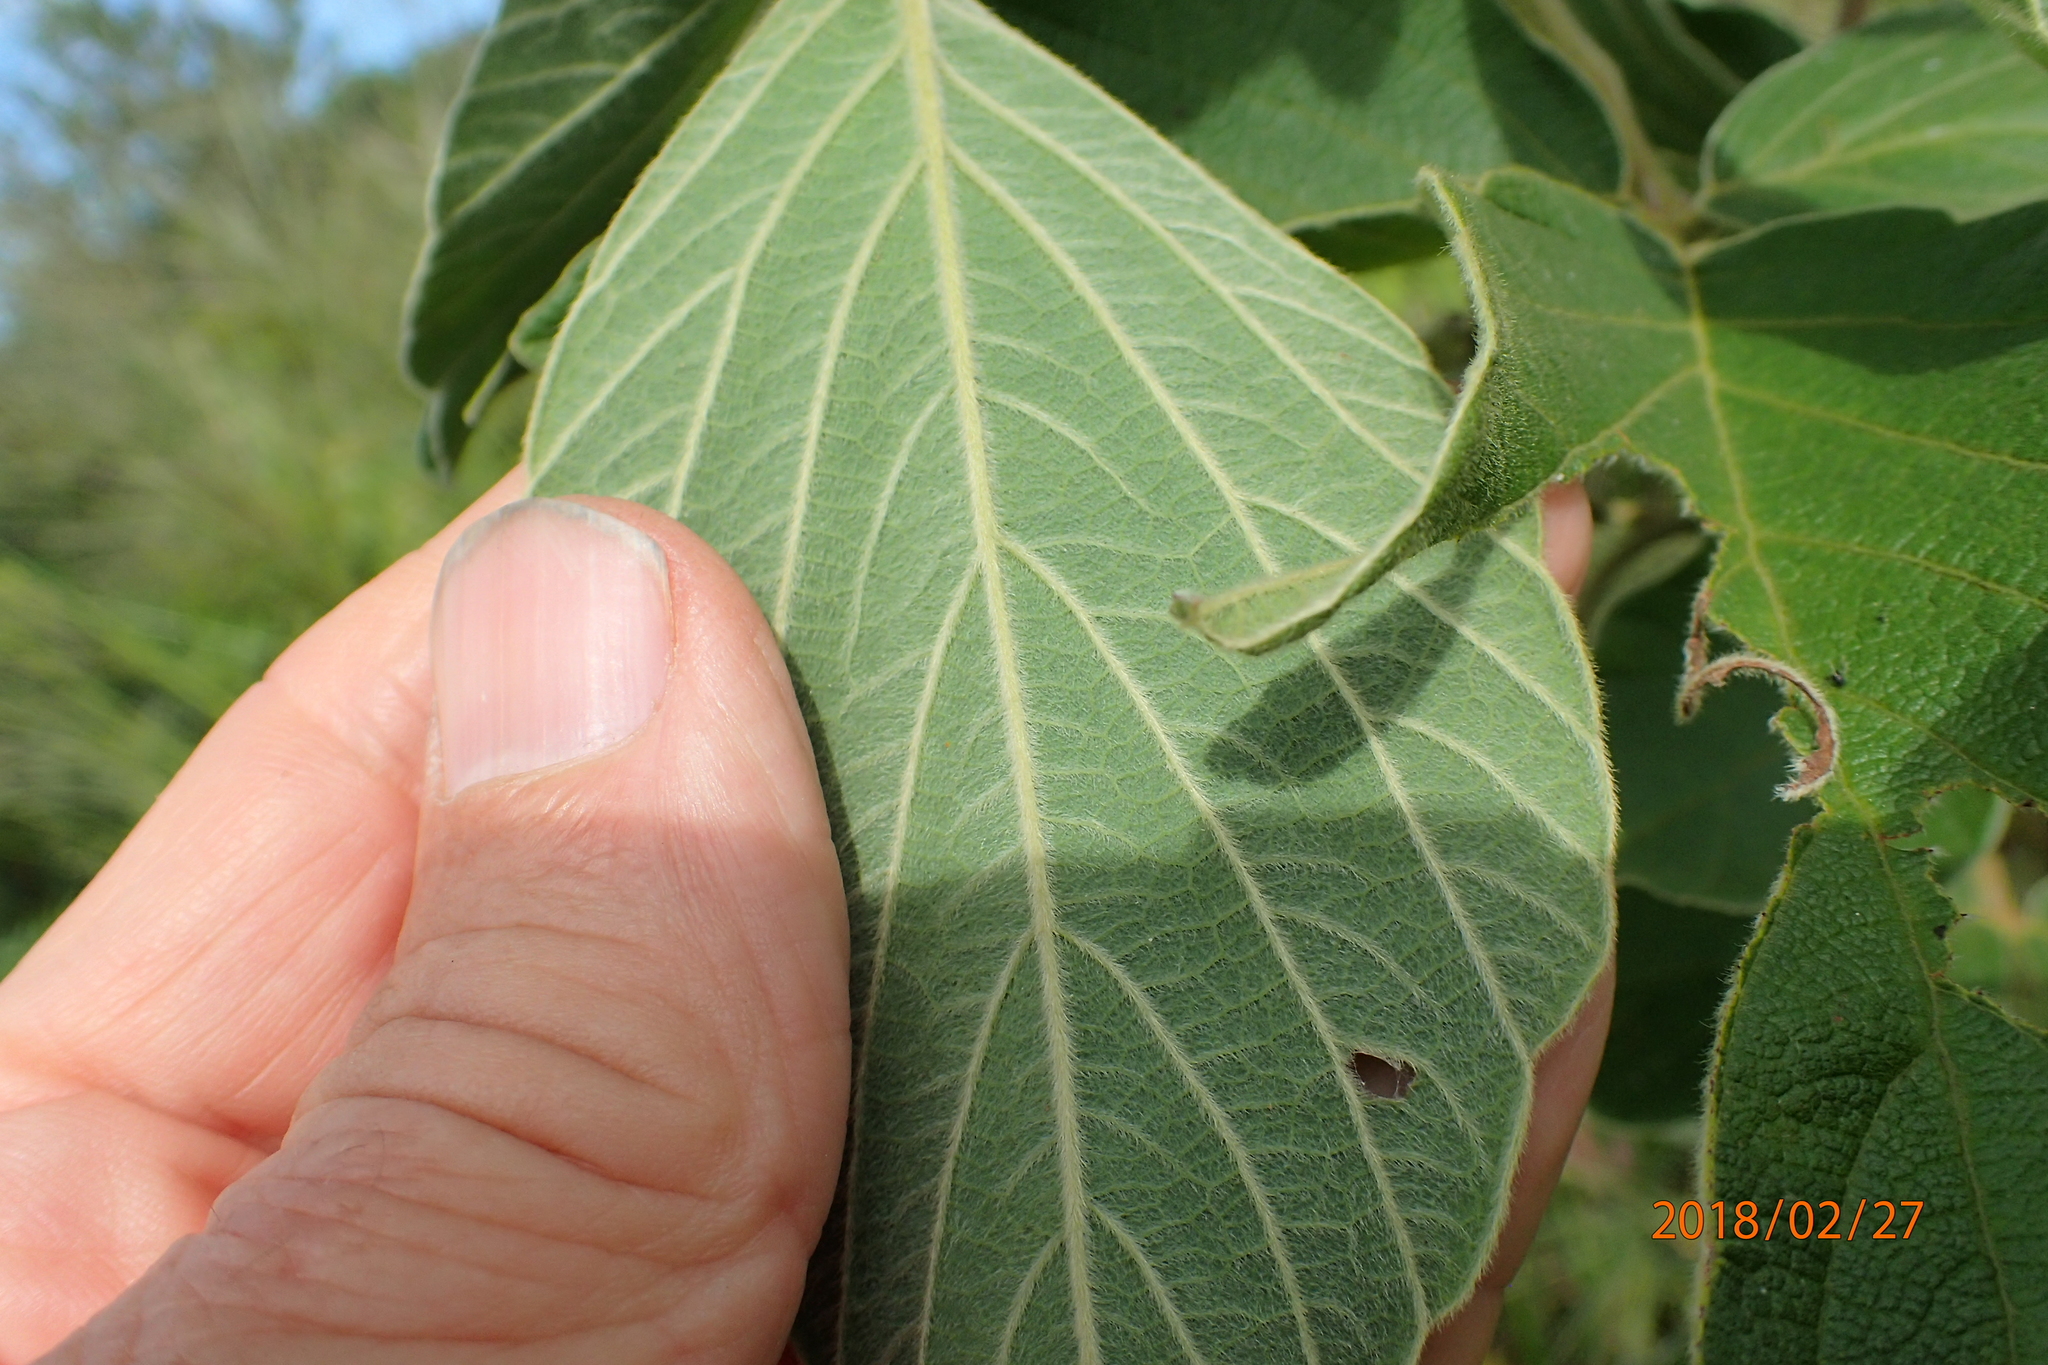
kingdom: Plantae
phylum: Tracheophyta
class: Magnoliopsida
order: Fabales
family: Fabaceae
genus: Pseudarthria
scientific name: Pseudarthria hookeri
